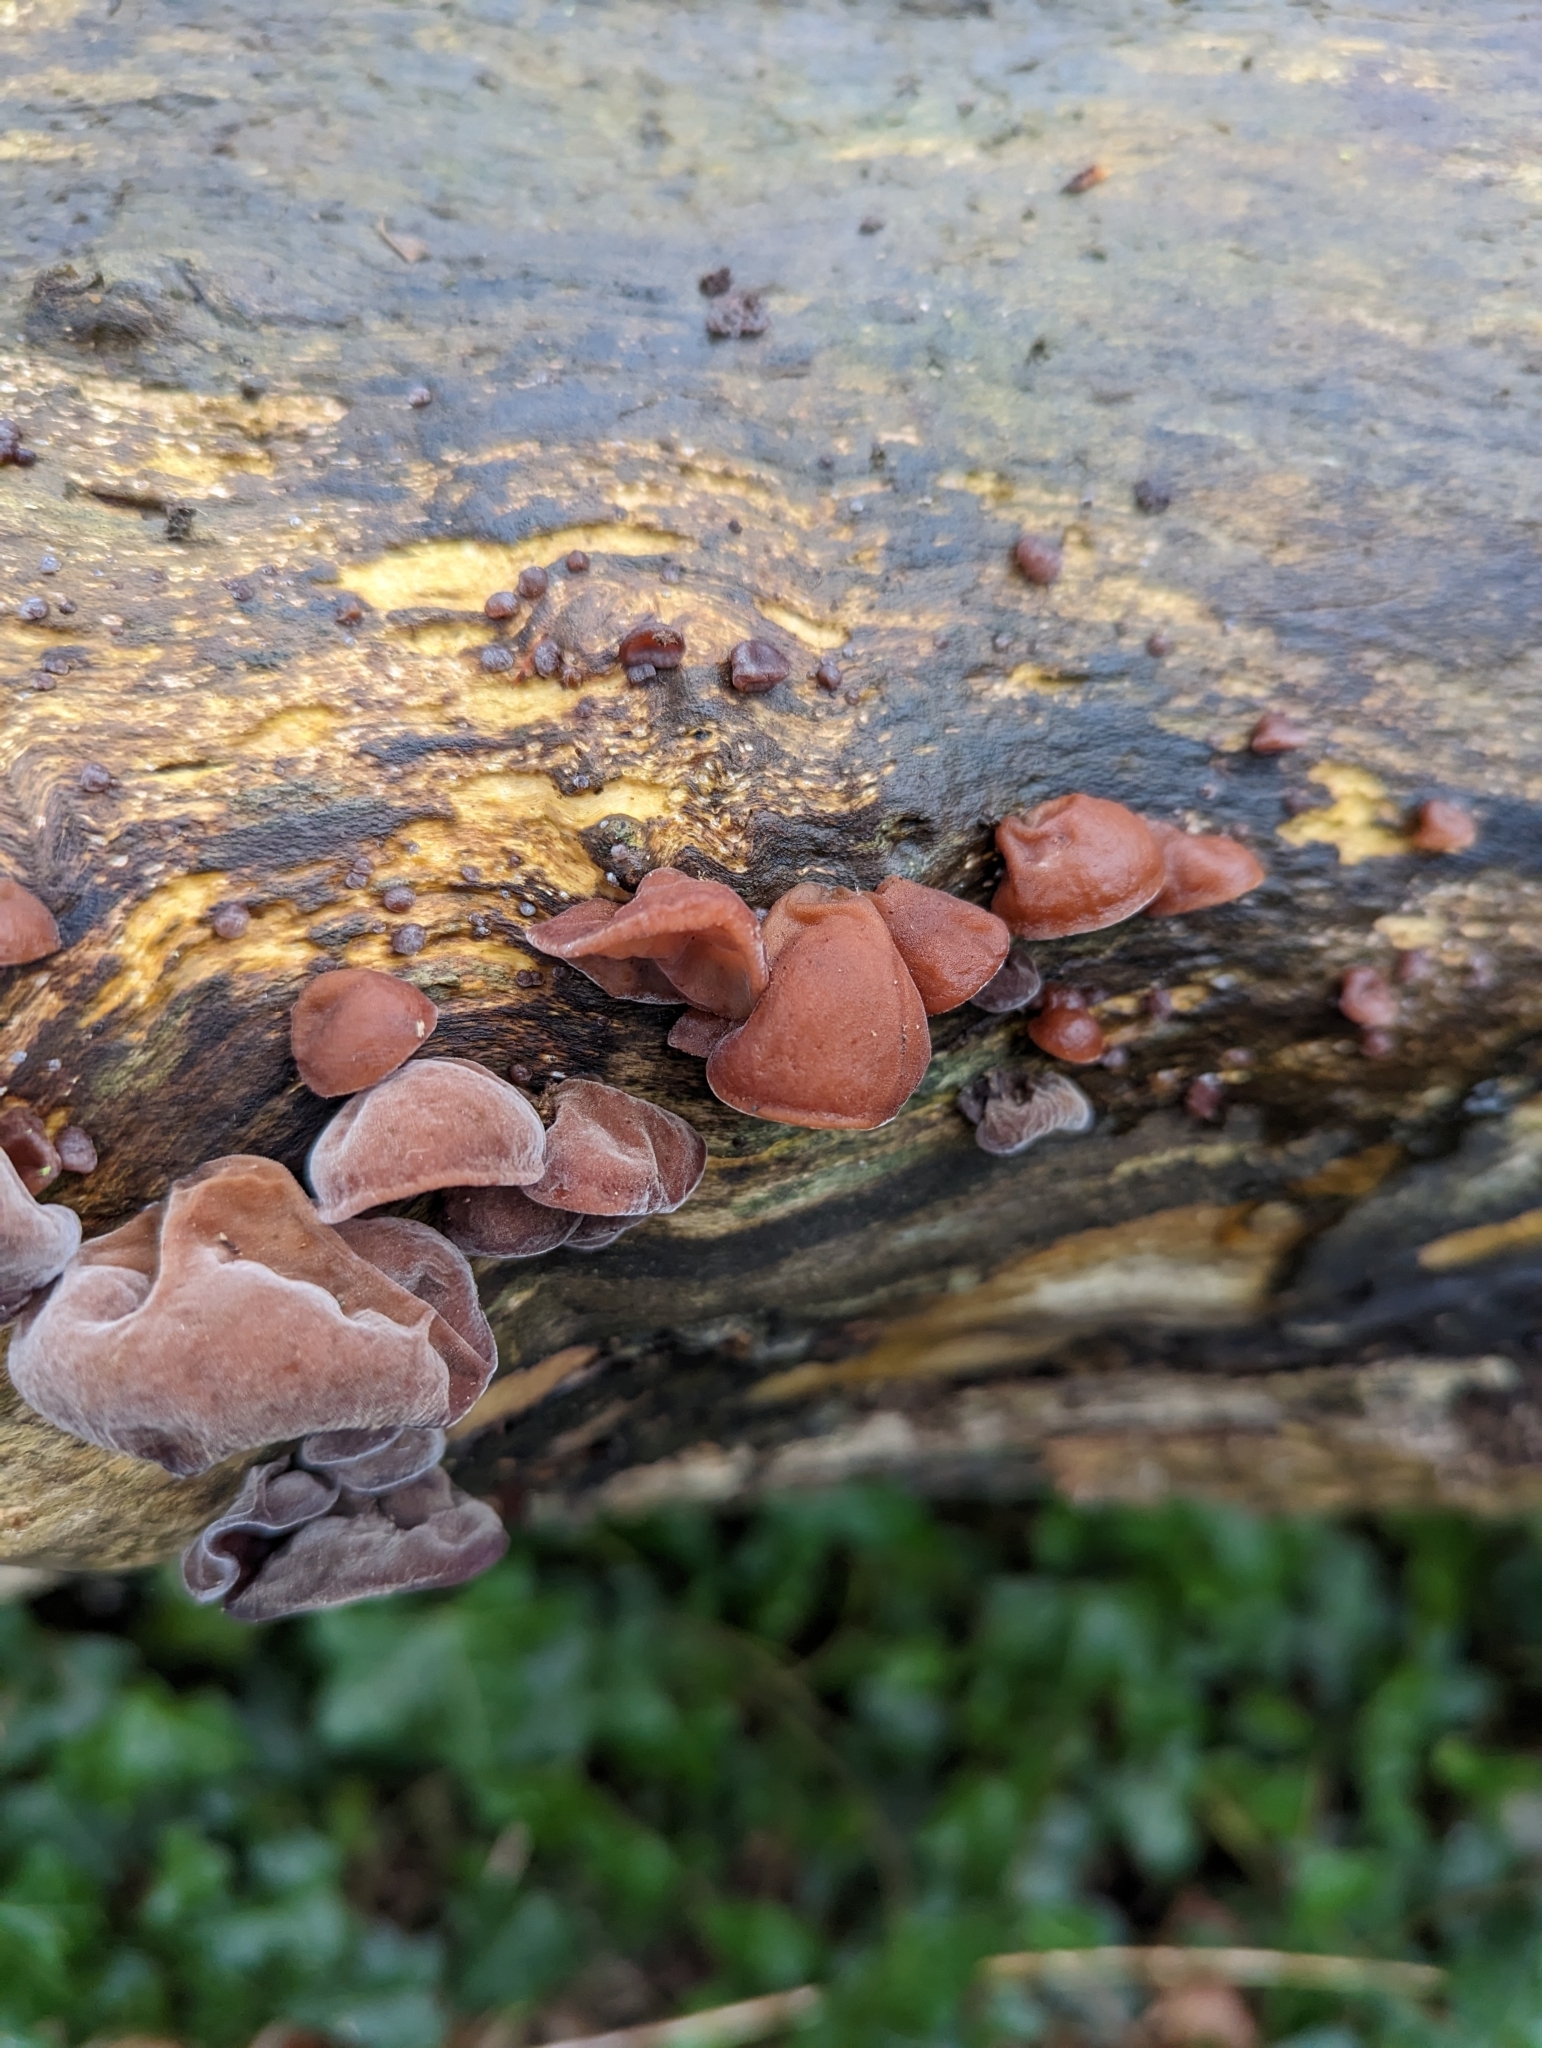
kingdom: Fungi
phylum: Basidiomycota
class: Agaricomycetes
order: Auriculariales
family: Auriculariaceae
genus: Auricularia
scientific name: Auricularia auricula-judae
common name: Jelly ear
